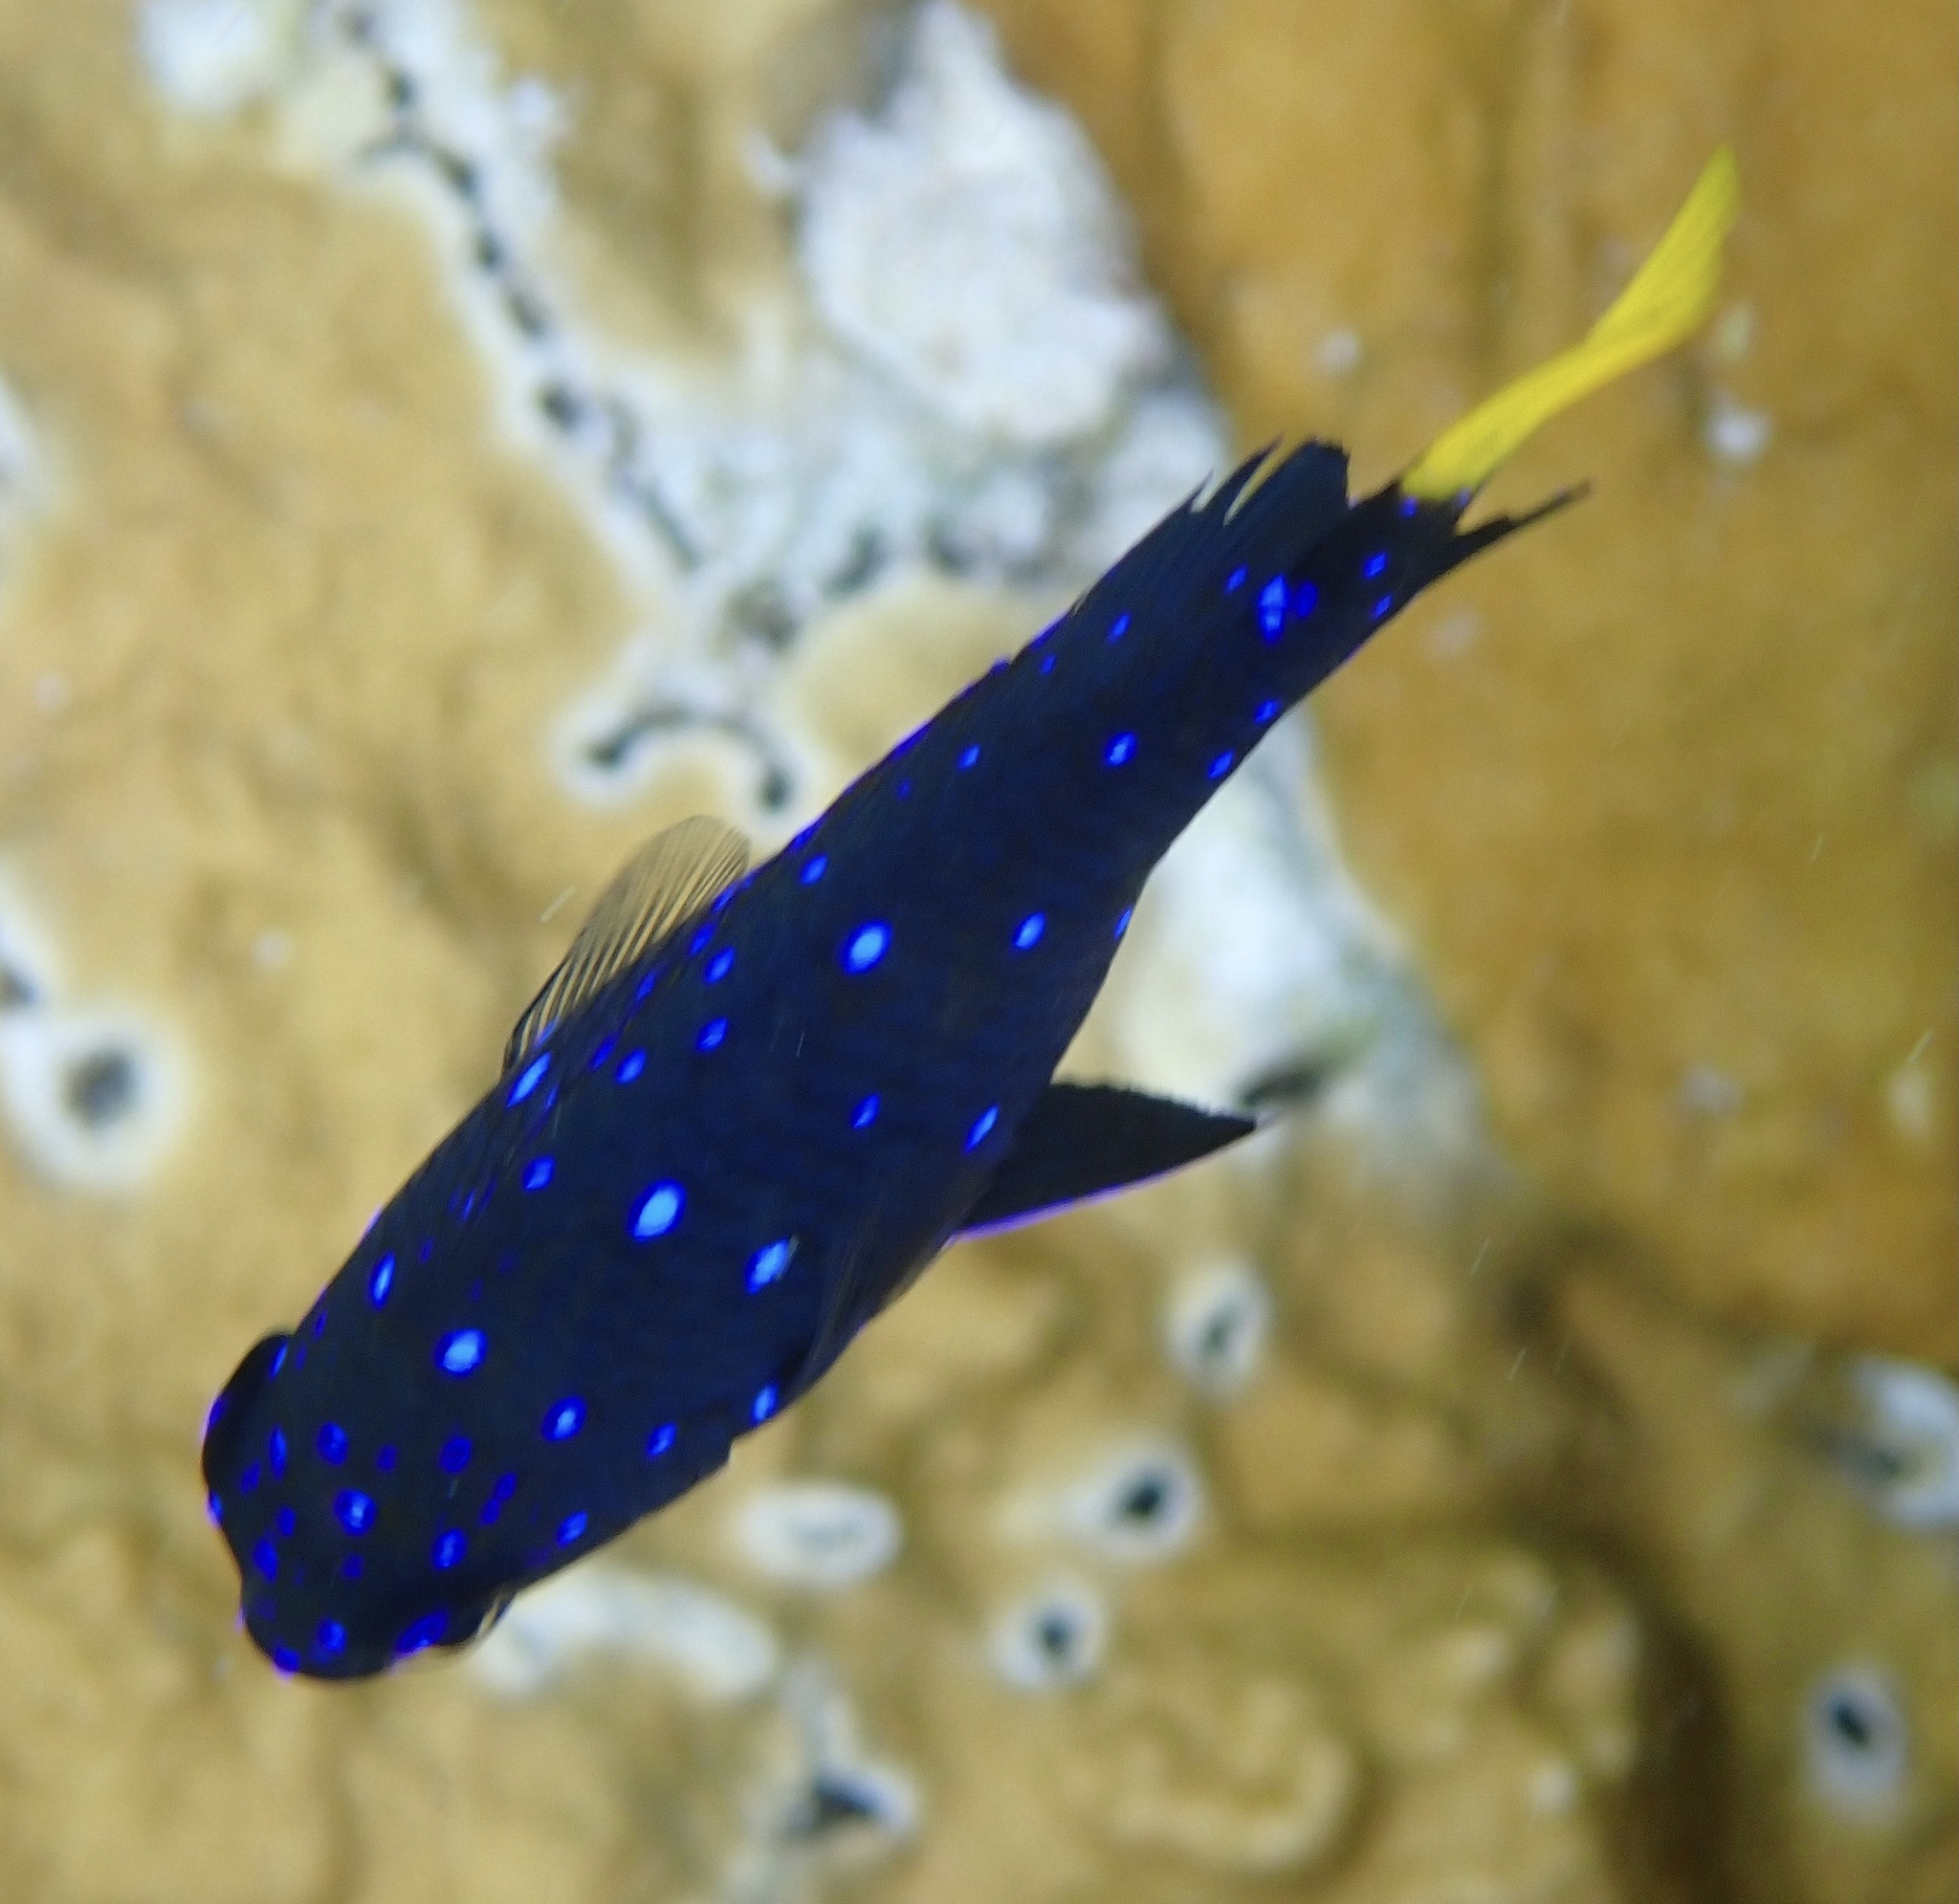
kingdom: Animalia
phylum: Chordata
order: Perciformes
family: Pomacentridae
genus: Microspathodon
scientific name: Microspathodon chrysurus
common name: Yellowtail damselfish
